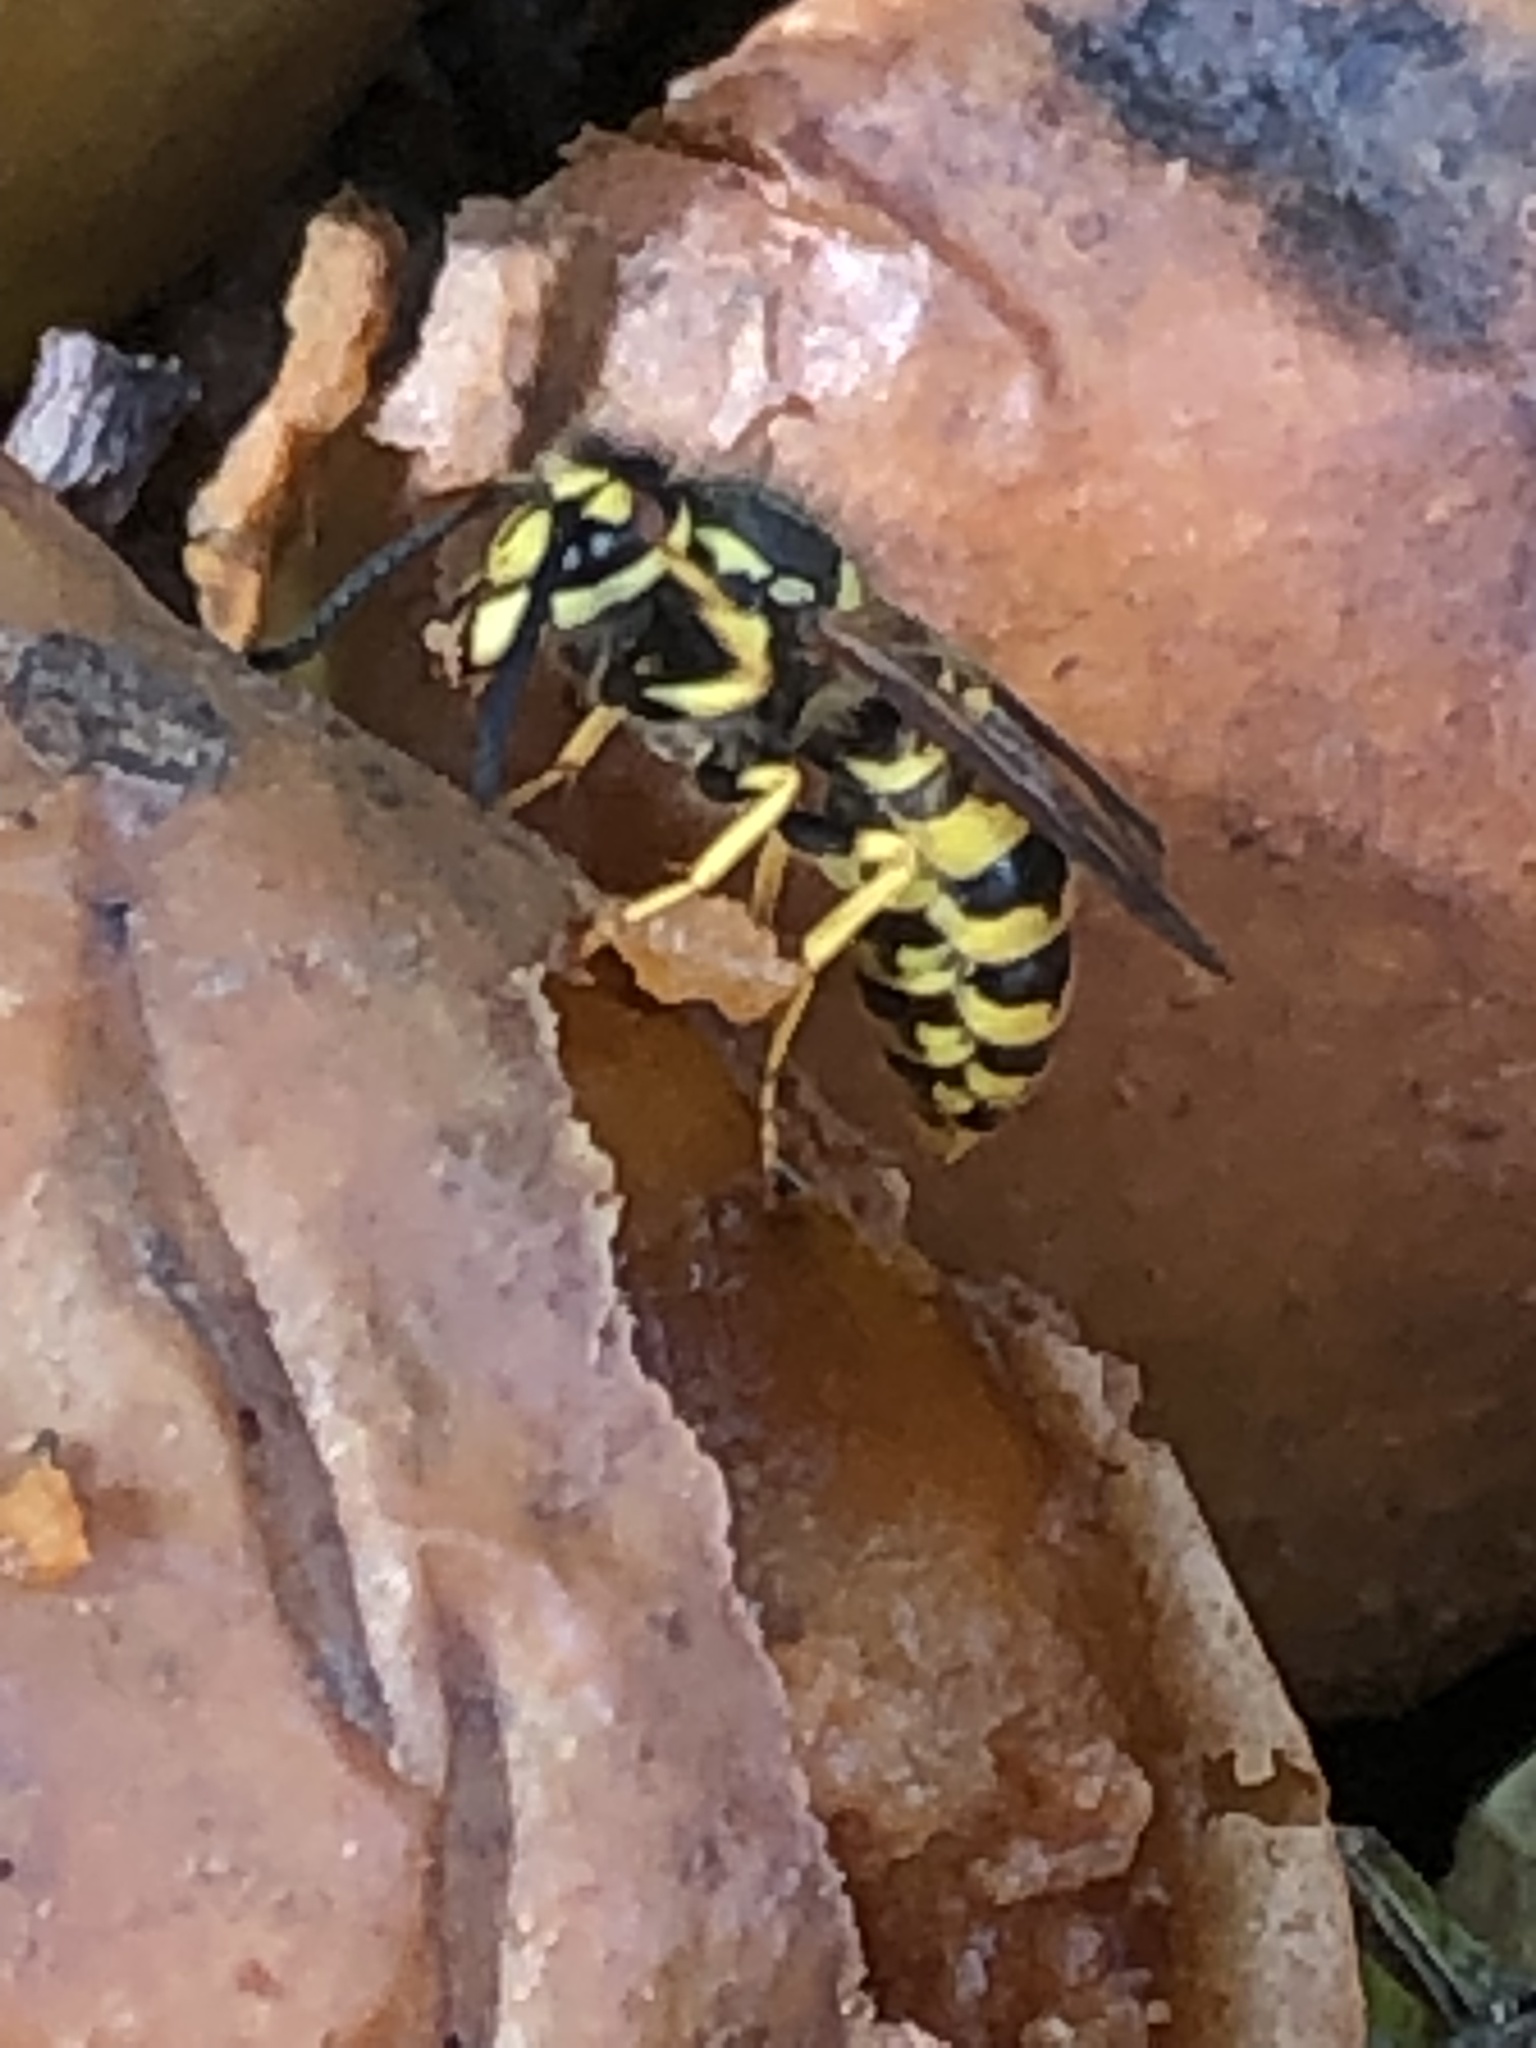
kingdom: Animalia
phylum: Arthropoda
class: Insecta
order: Hymenoptera
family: Vespidae
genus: Vespula
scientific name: Vespula germanica
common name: German wasp
